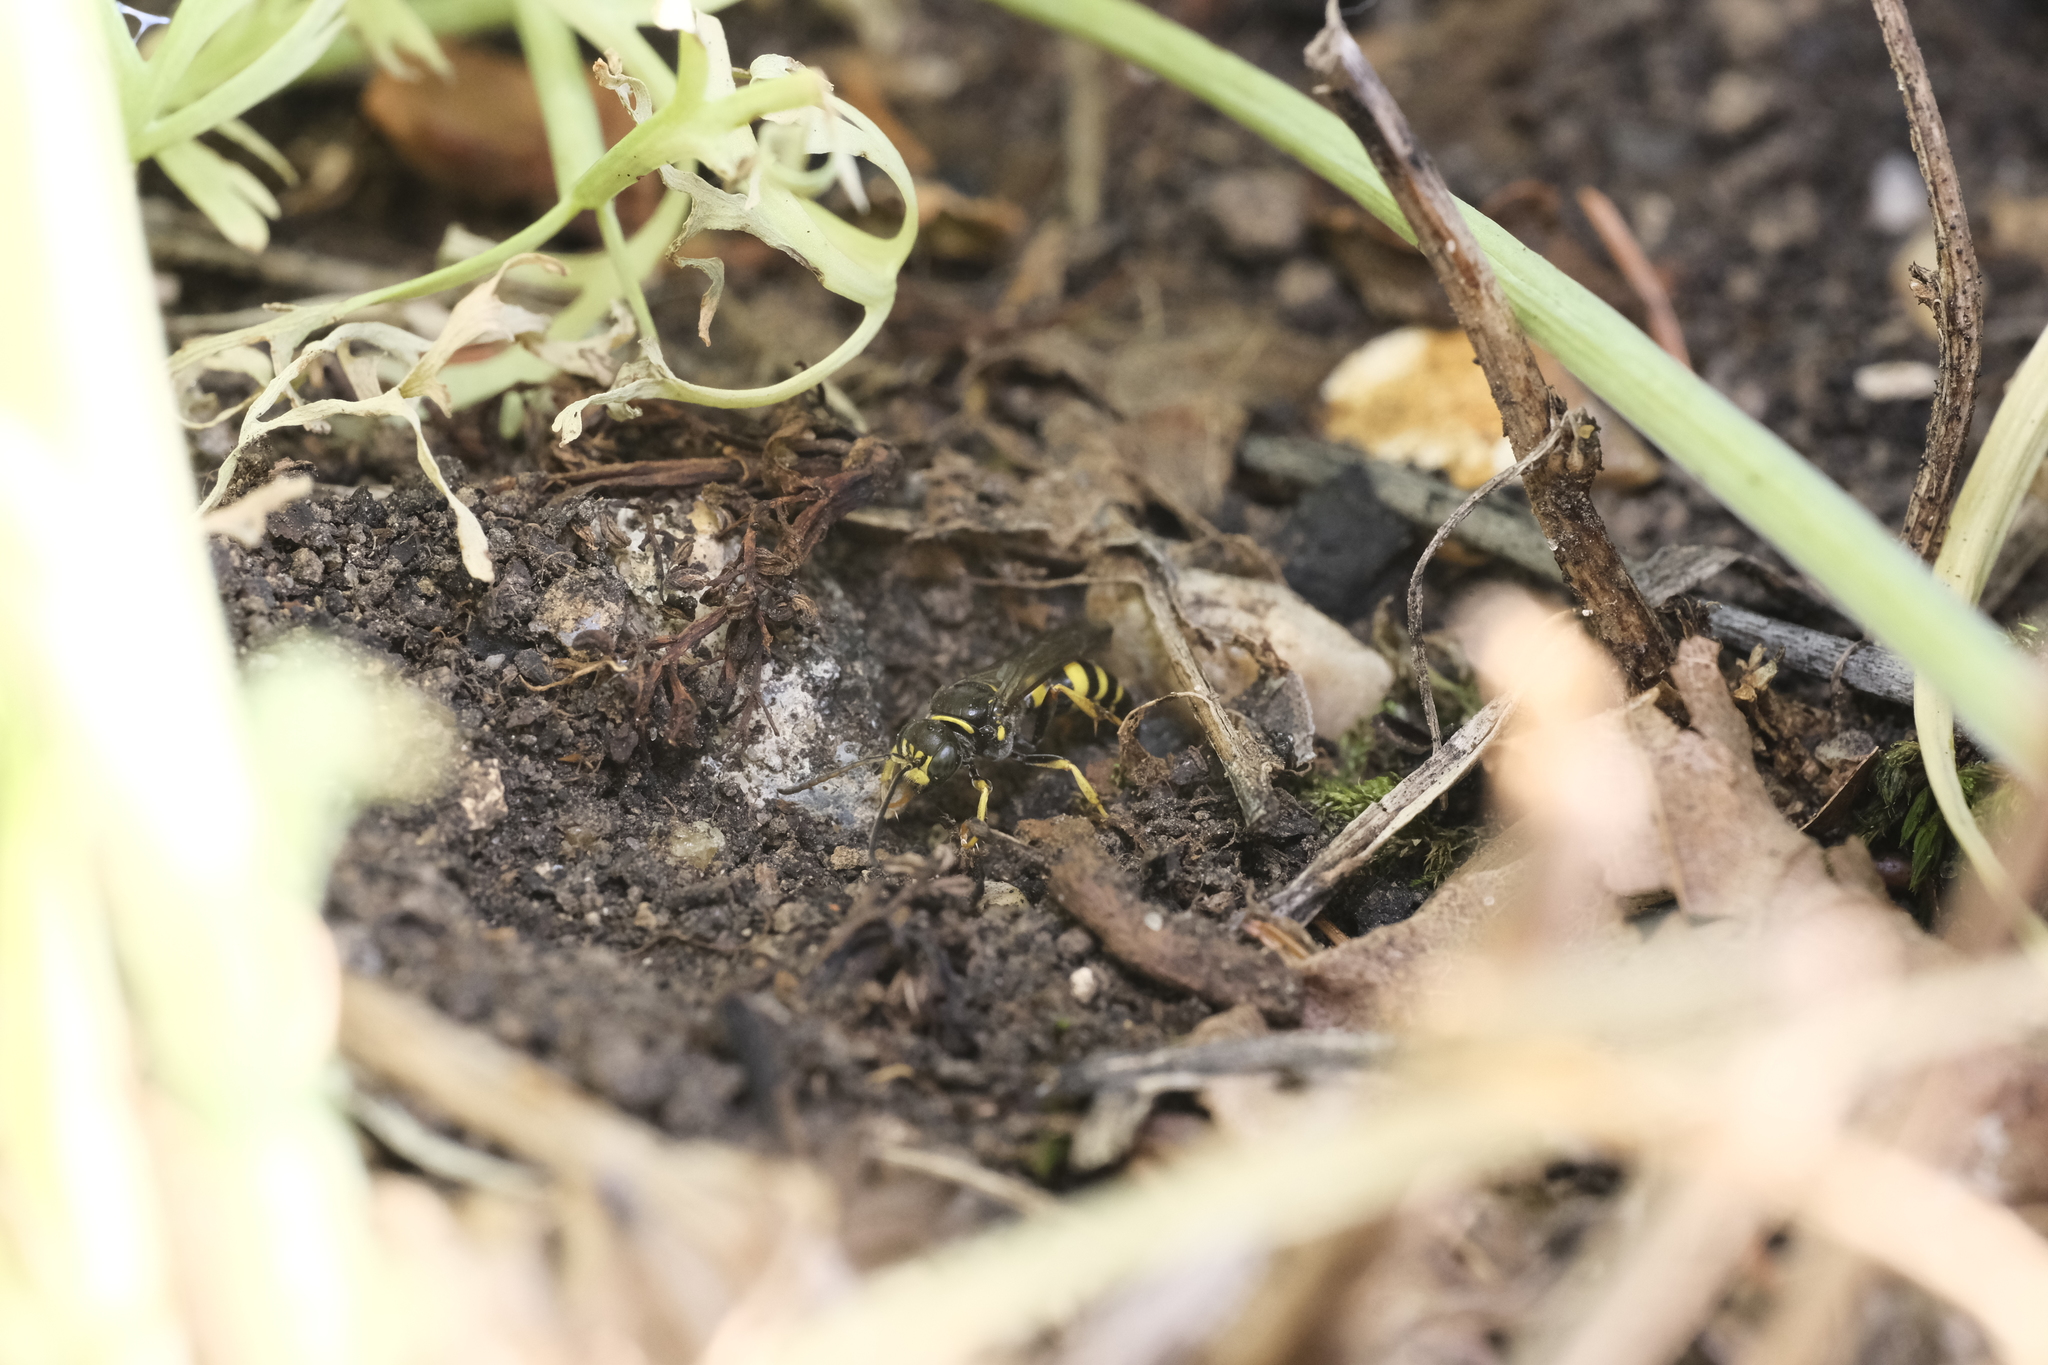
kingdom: Animalia
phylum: Arthropoda
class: Insecta
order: Hymenoptera
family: Crabronidae
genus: Gorytes
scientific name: Gorytes laticinctus
